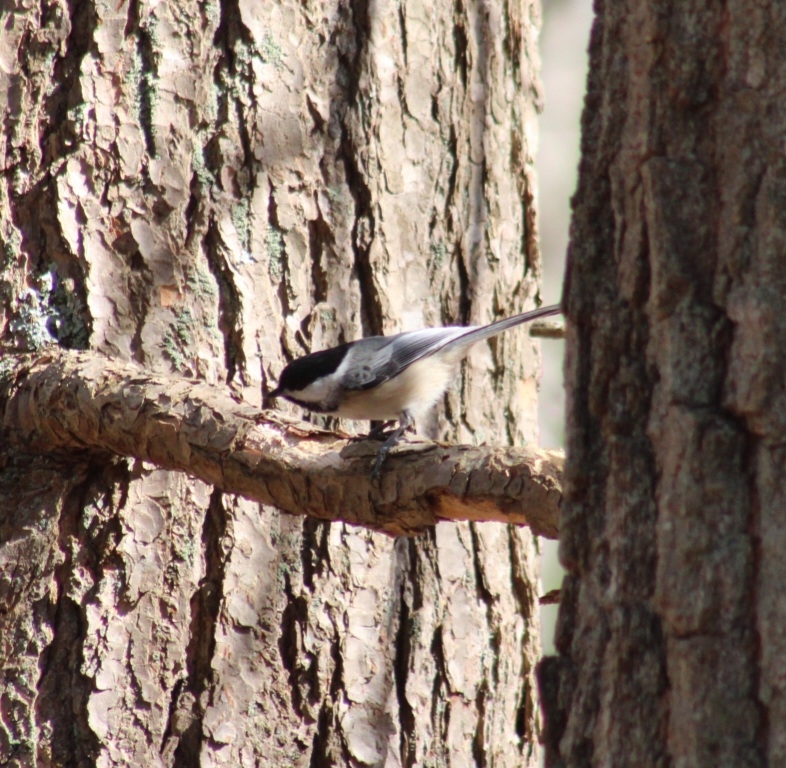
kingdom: Animalia
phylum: Chordata
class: Aves
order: Passeriformes
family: Paridae
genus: Poecile
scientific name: Poecile atricapillus
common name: Black-capped chickadee
